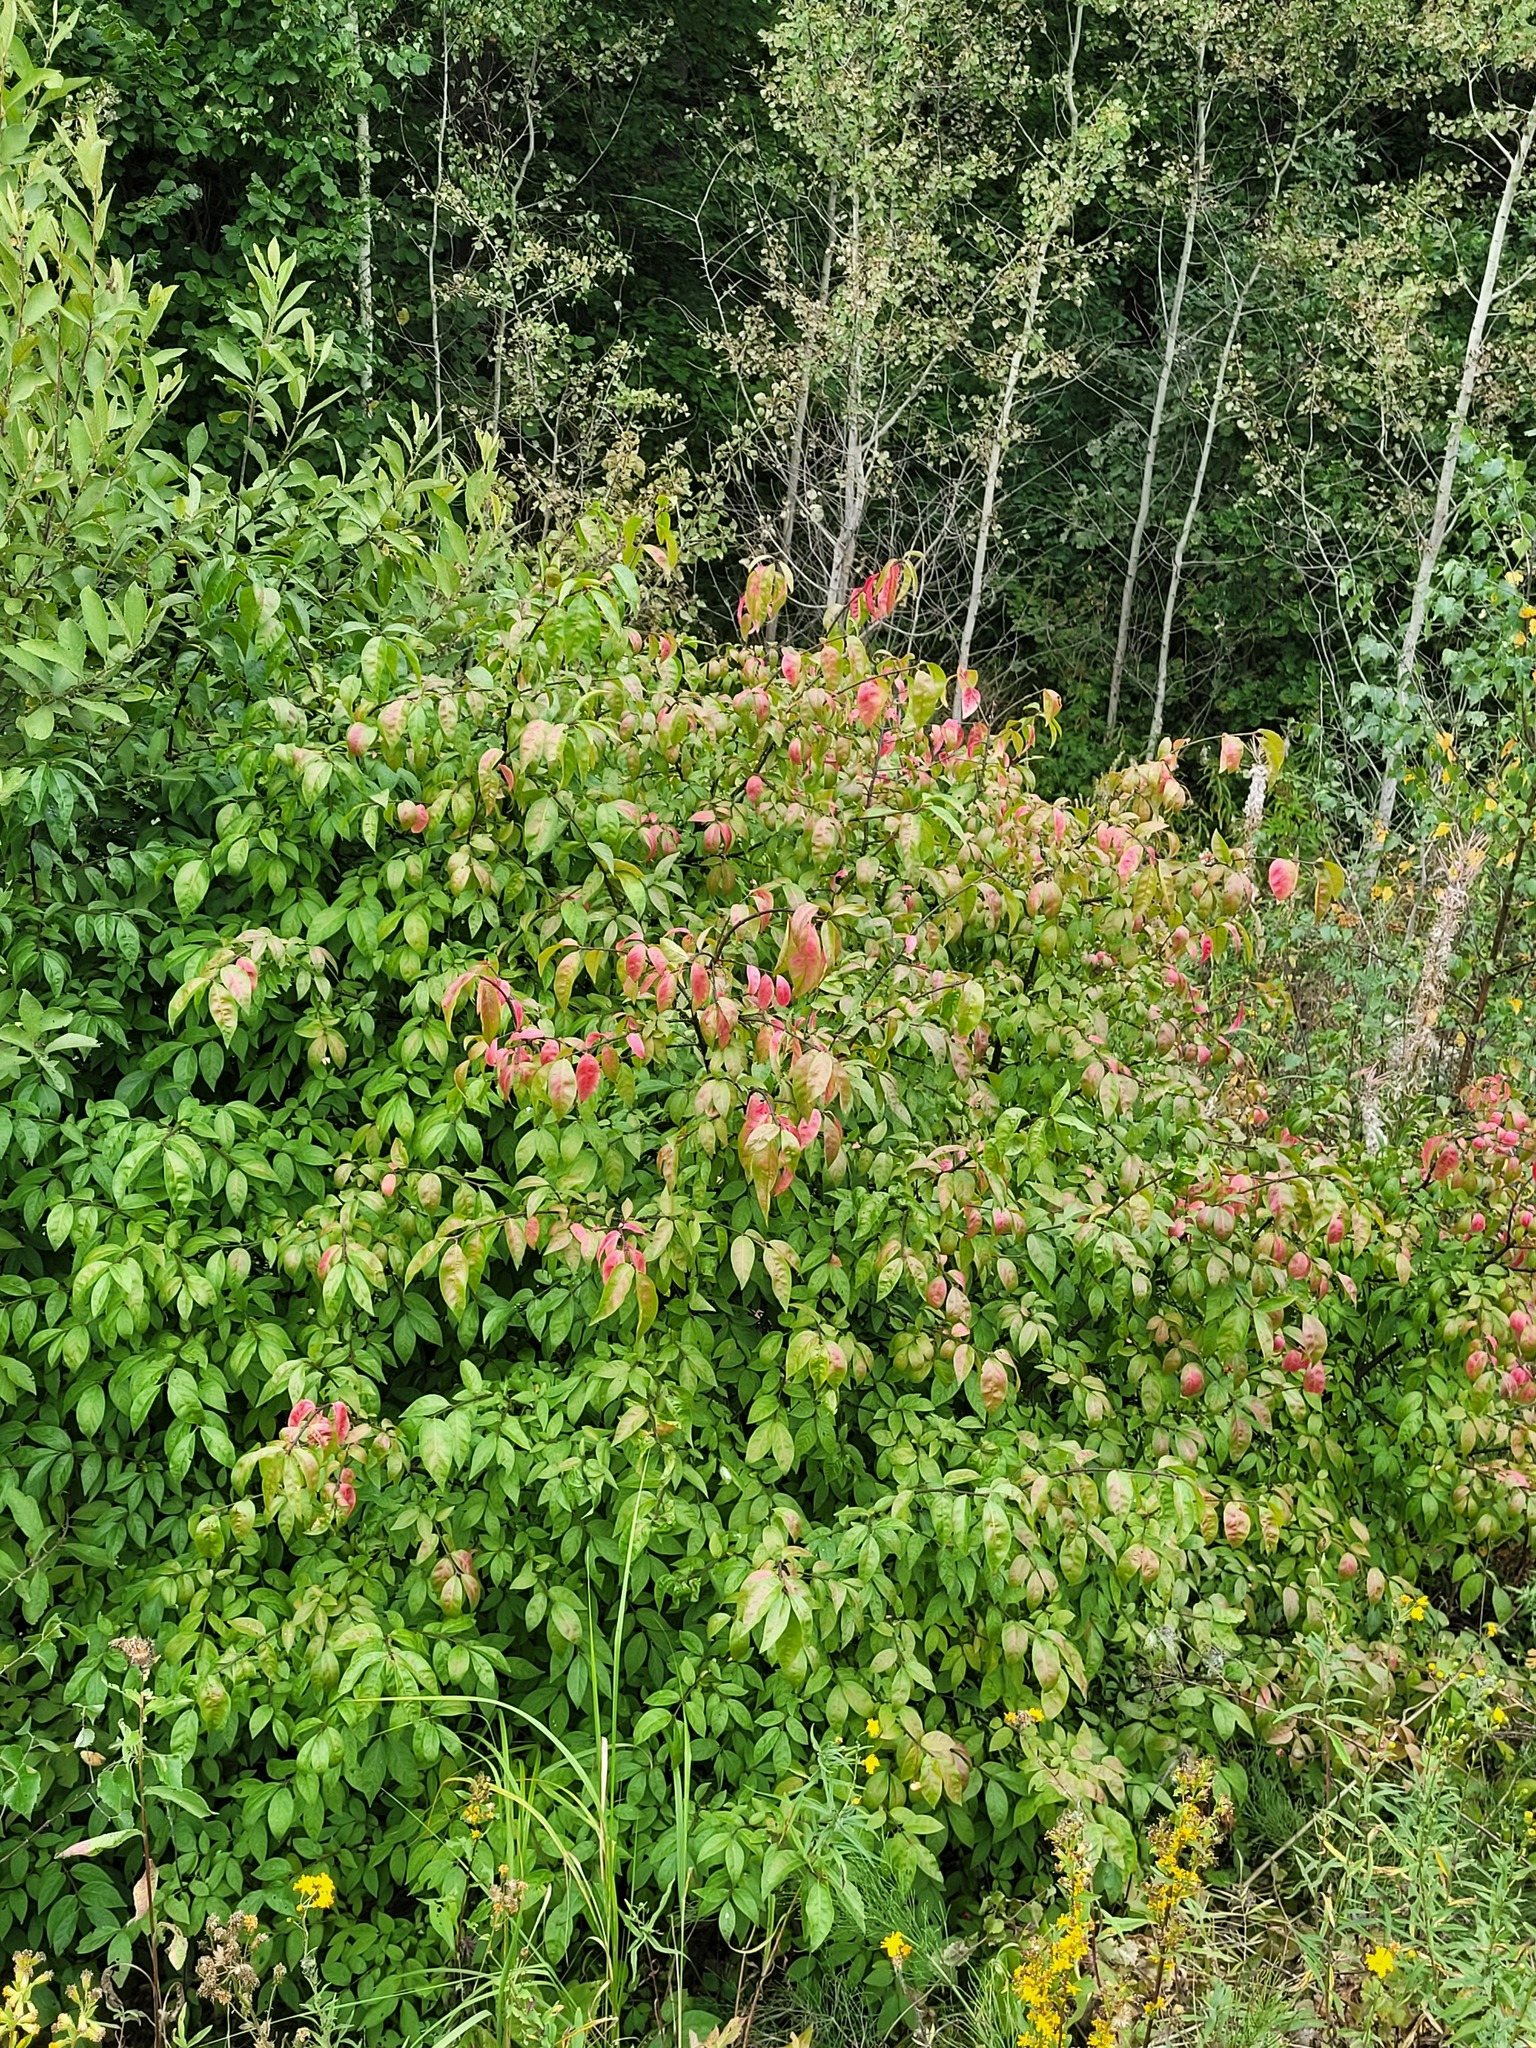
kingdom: Plantae
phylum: Tracheophyta
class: Magnoliopsida
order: Celastrales
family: Celastraceae
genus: Euonymus
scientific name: Euonymus verrucosus
